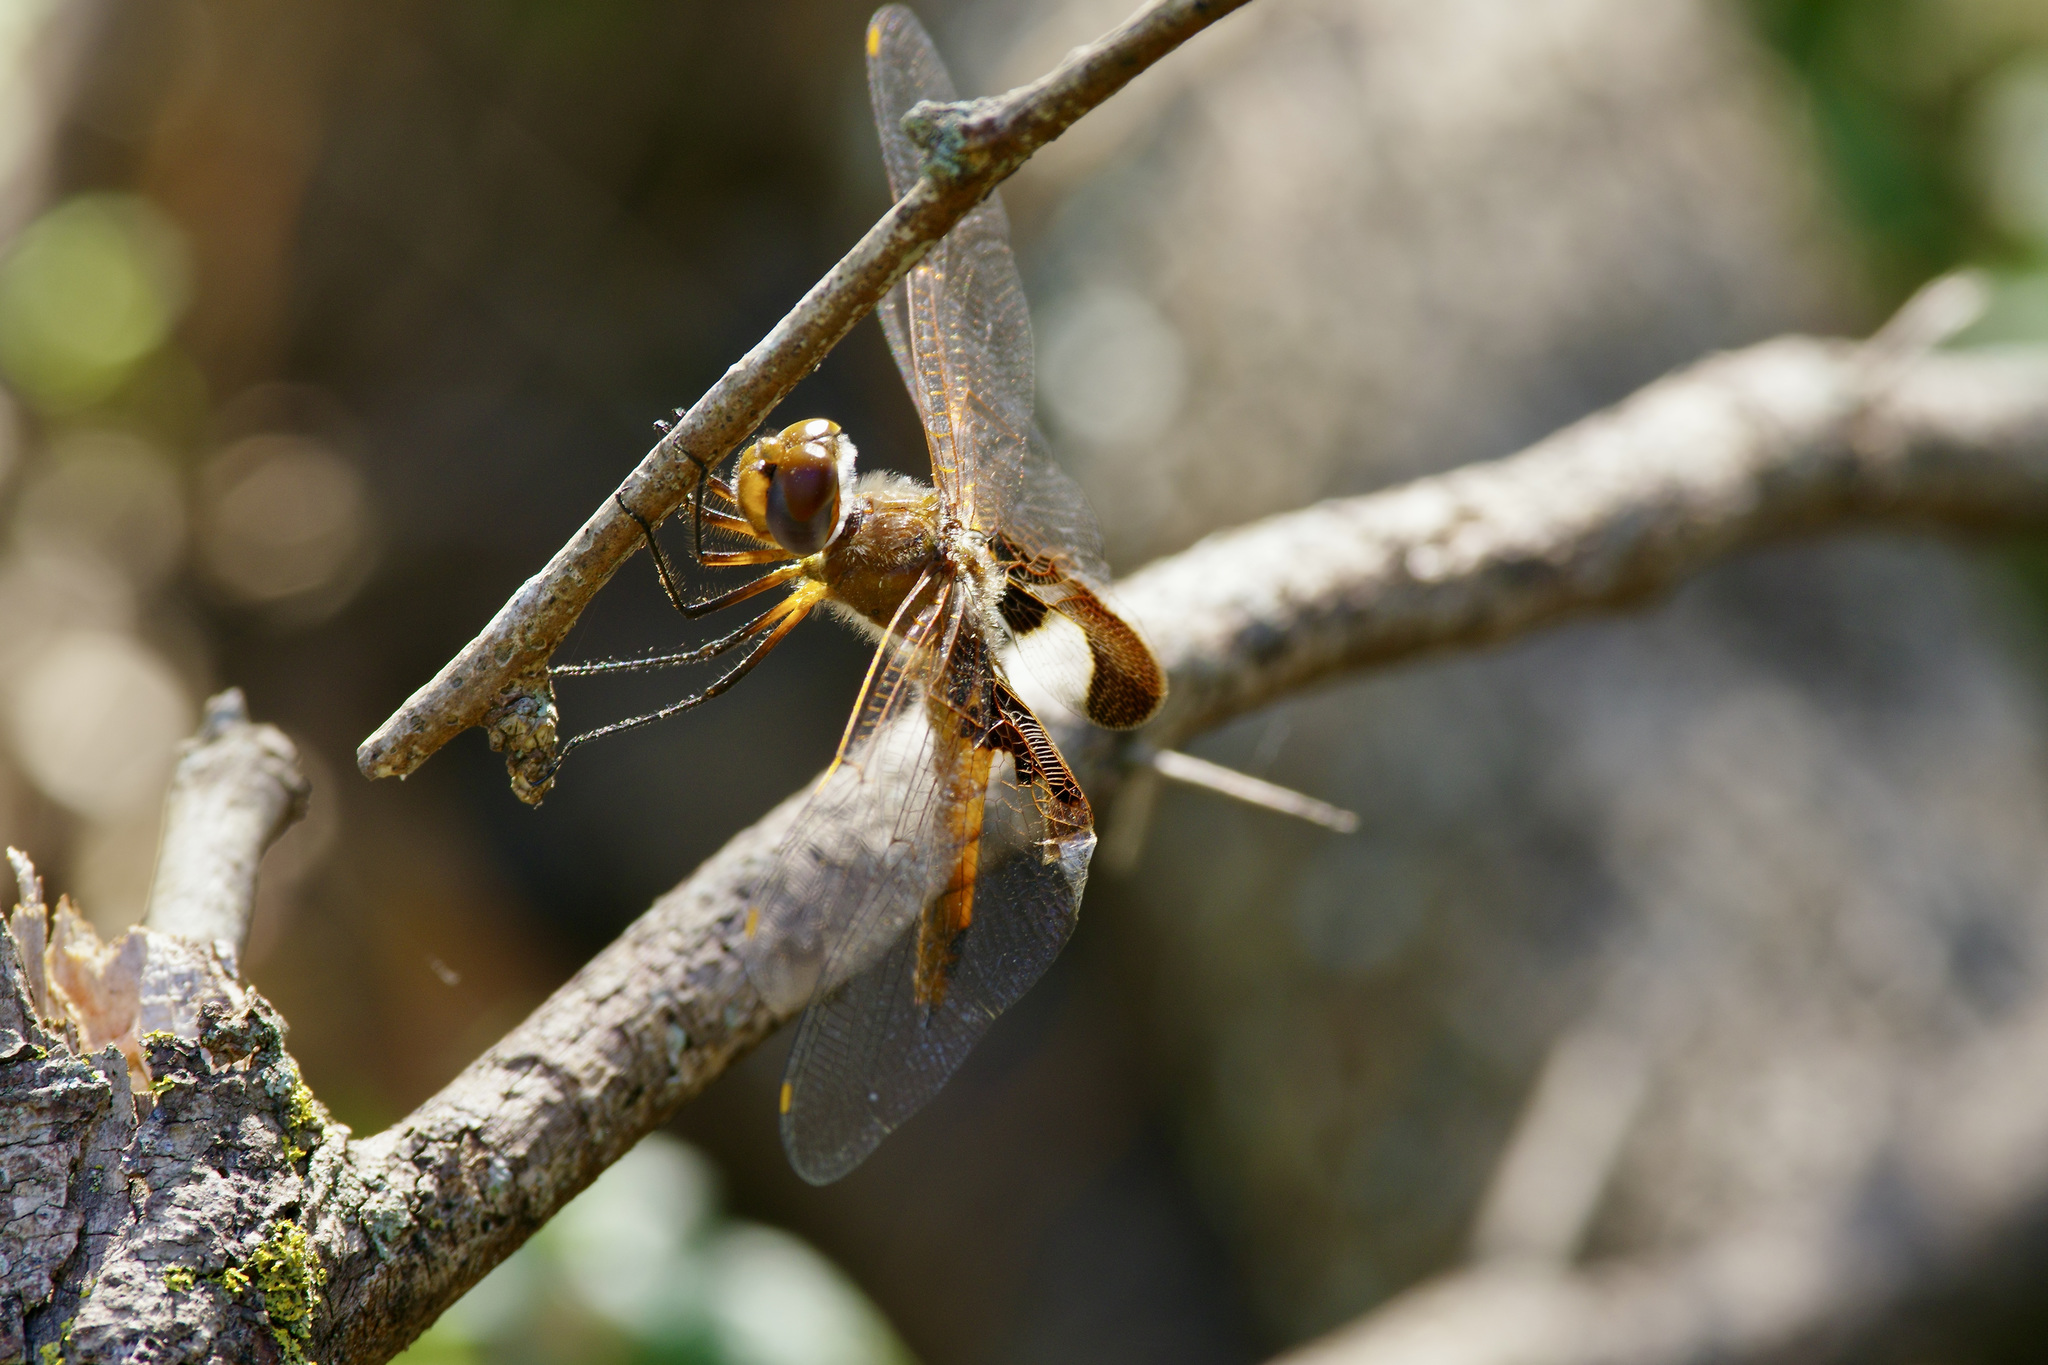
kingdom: Animalia
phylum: Arthropoda
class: Insecta
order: Odonata
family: Libellulidae
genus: Tramea
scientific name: Tramea onusta
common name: Red saddlebags
